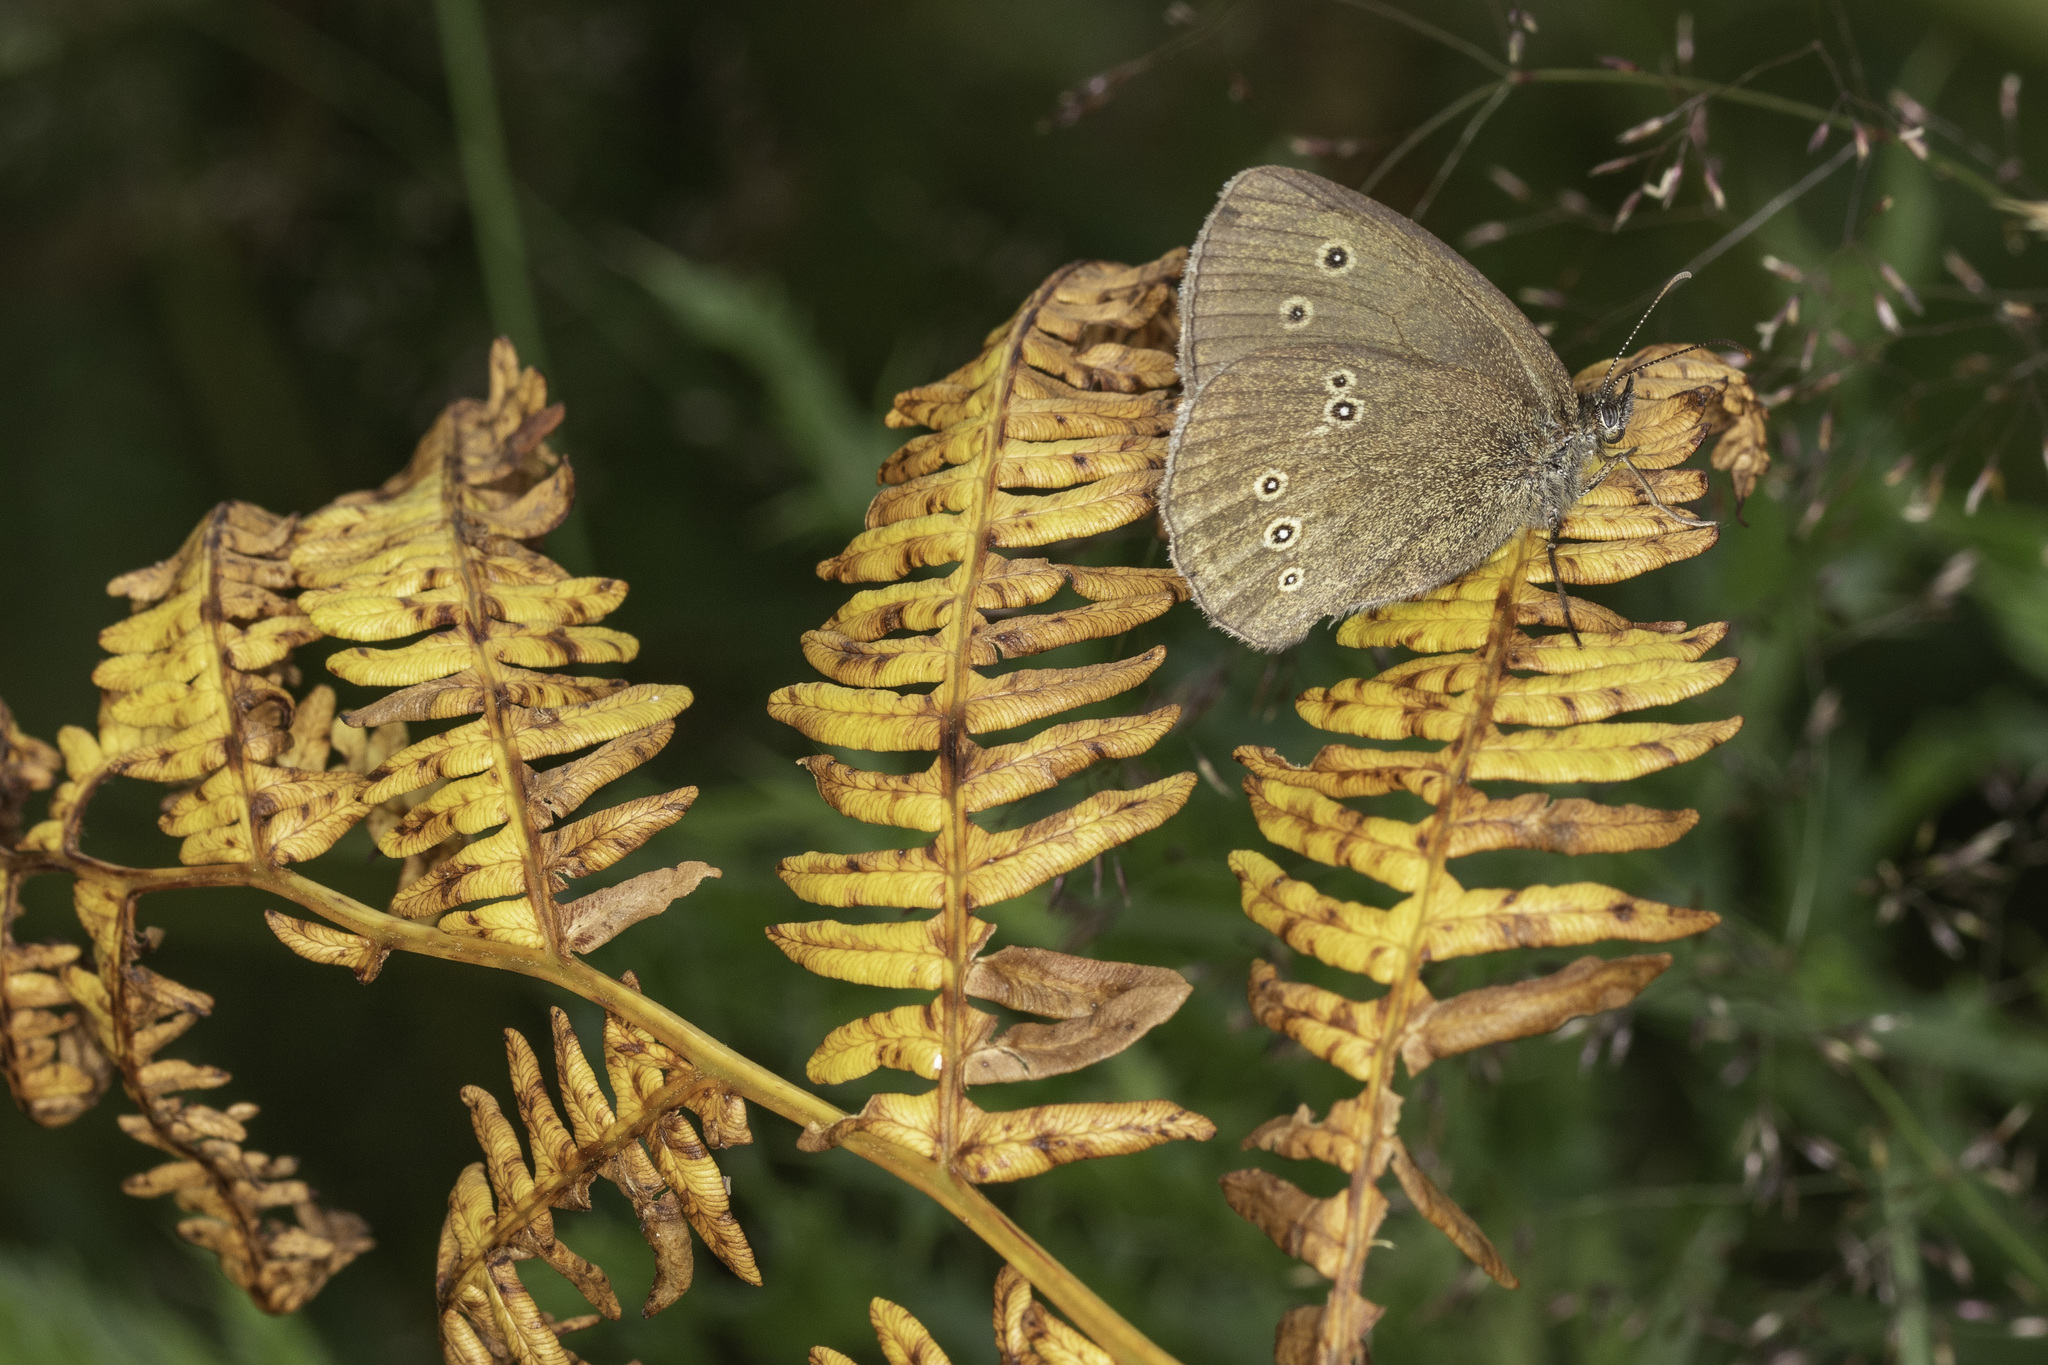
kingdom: Animalia
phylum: Arthropoda
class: Insecta
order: Lepidoptera
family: Nymphalidae
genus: Aphantopus
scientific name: Aphantopus hyperantus
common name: Ringlet
